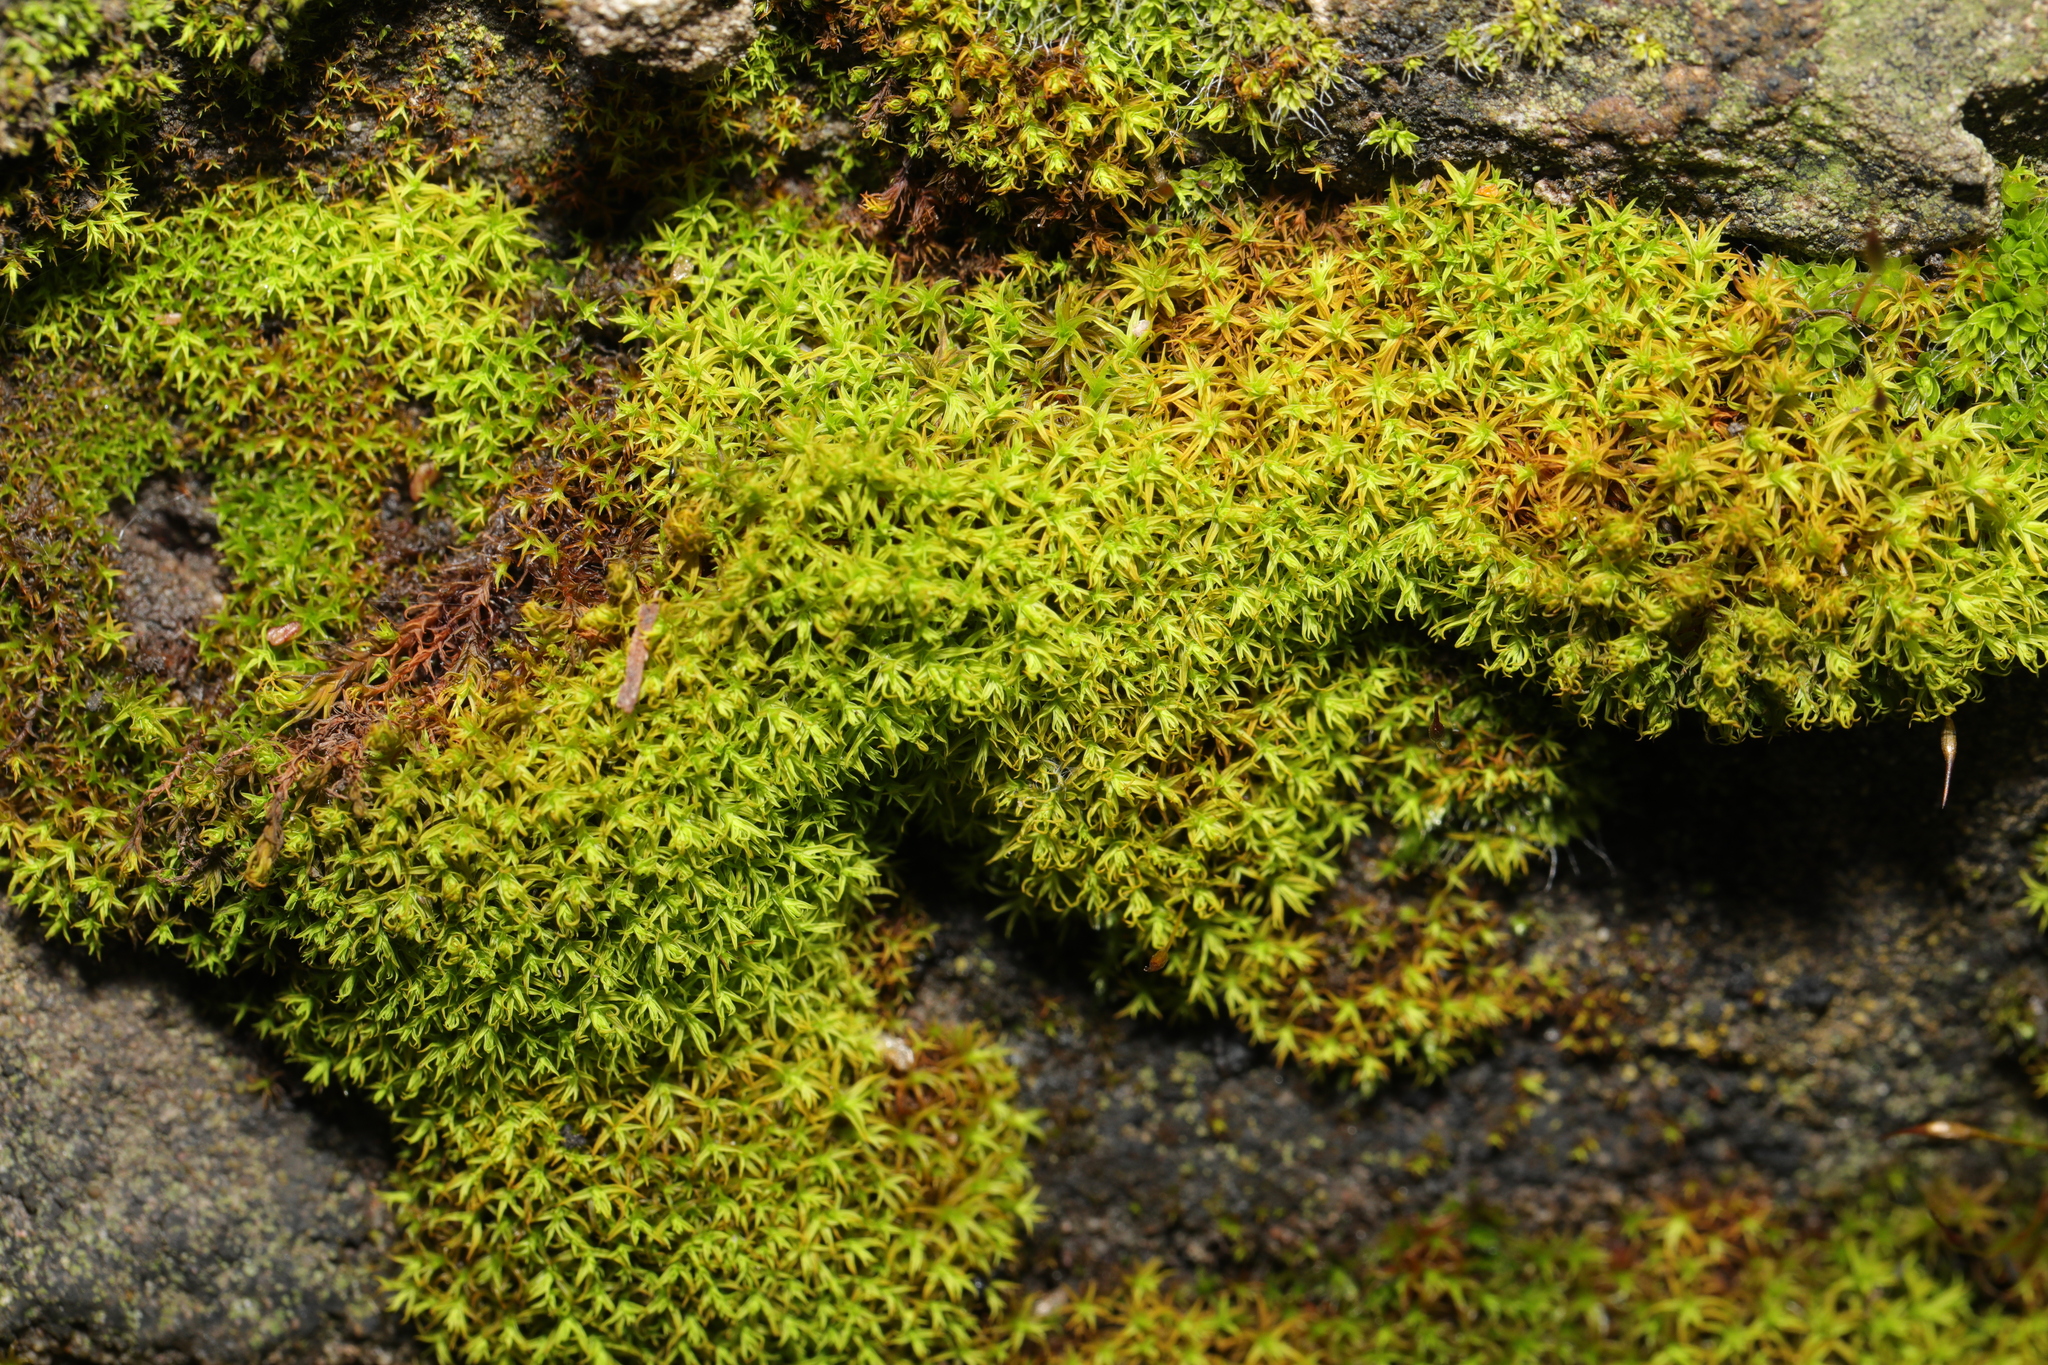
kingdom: Plantae
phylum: Bryophyta
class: Bryopsida
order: Pottiales
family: Pottiaceae
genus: Vinealobryum
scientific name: Vinealobryum insulanum
